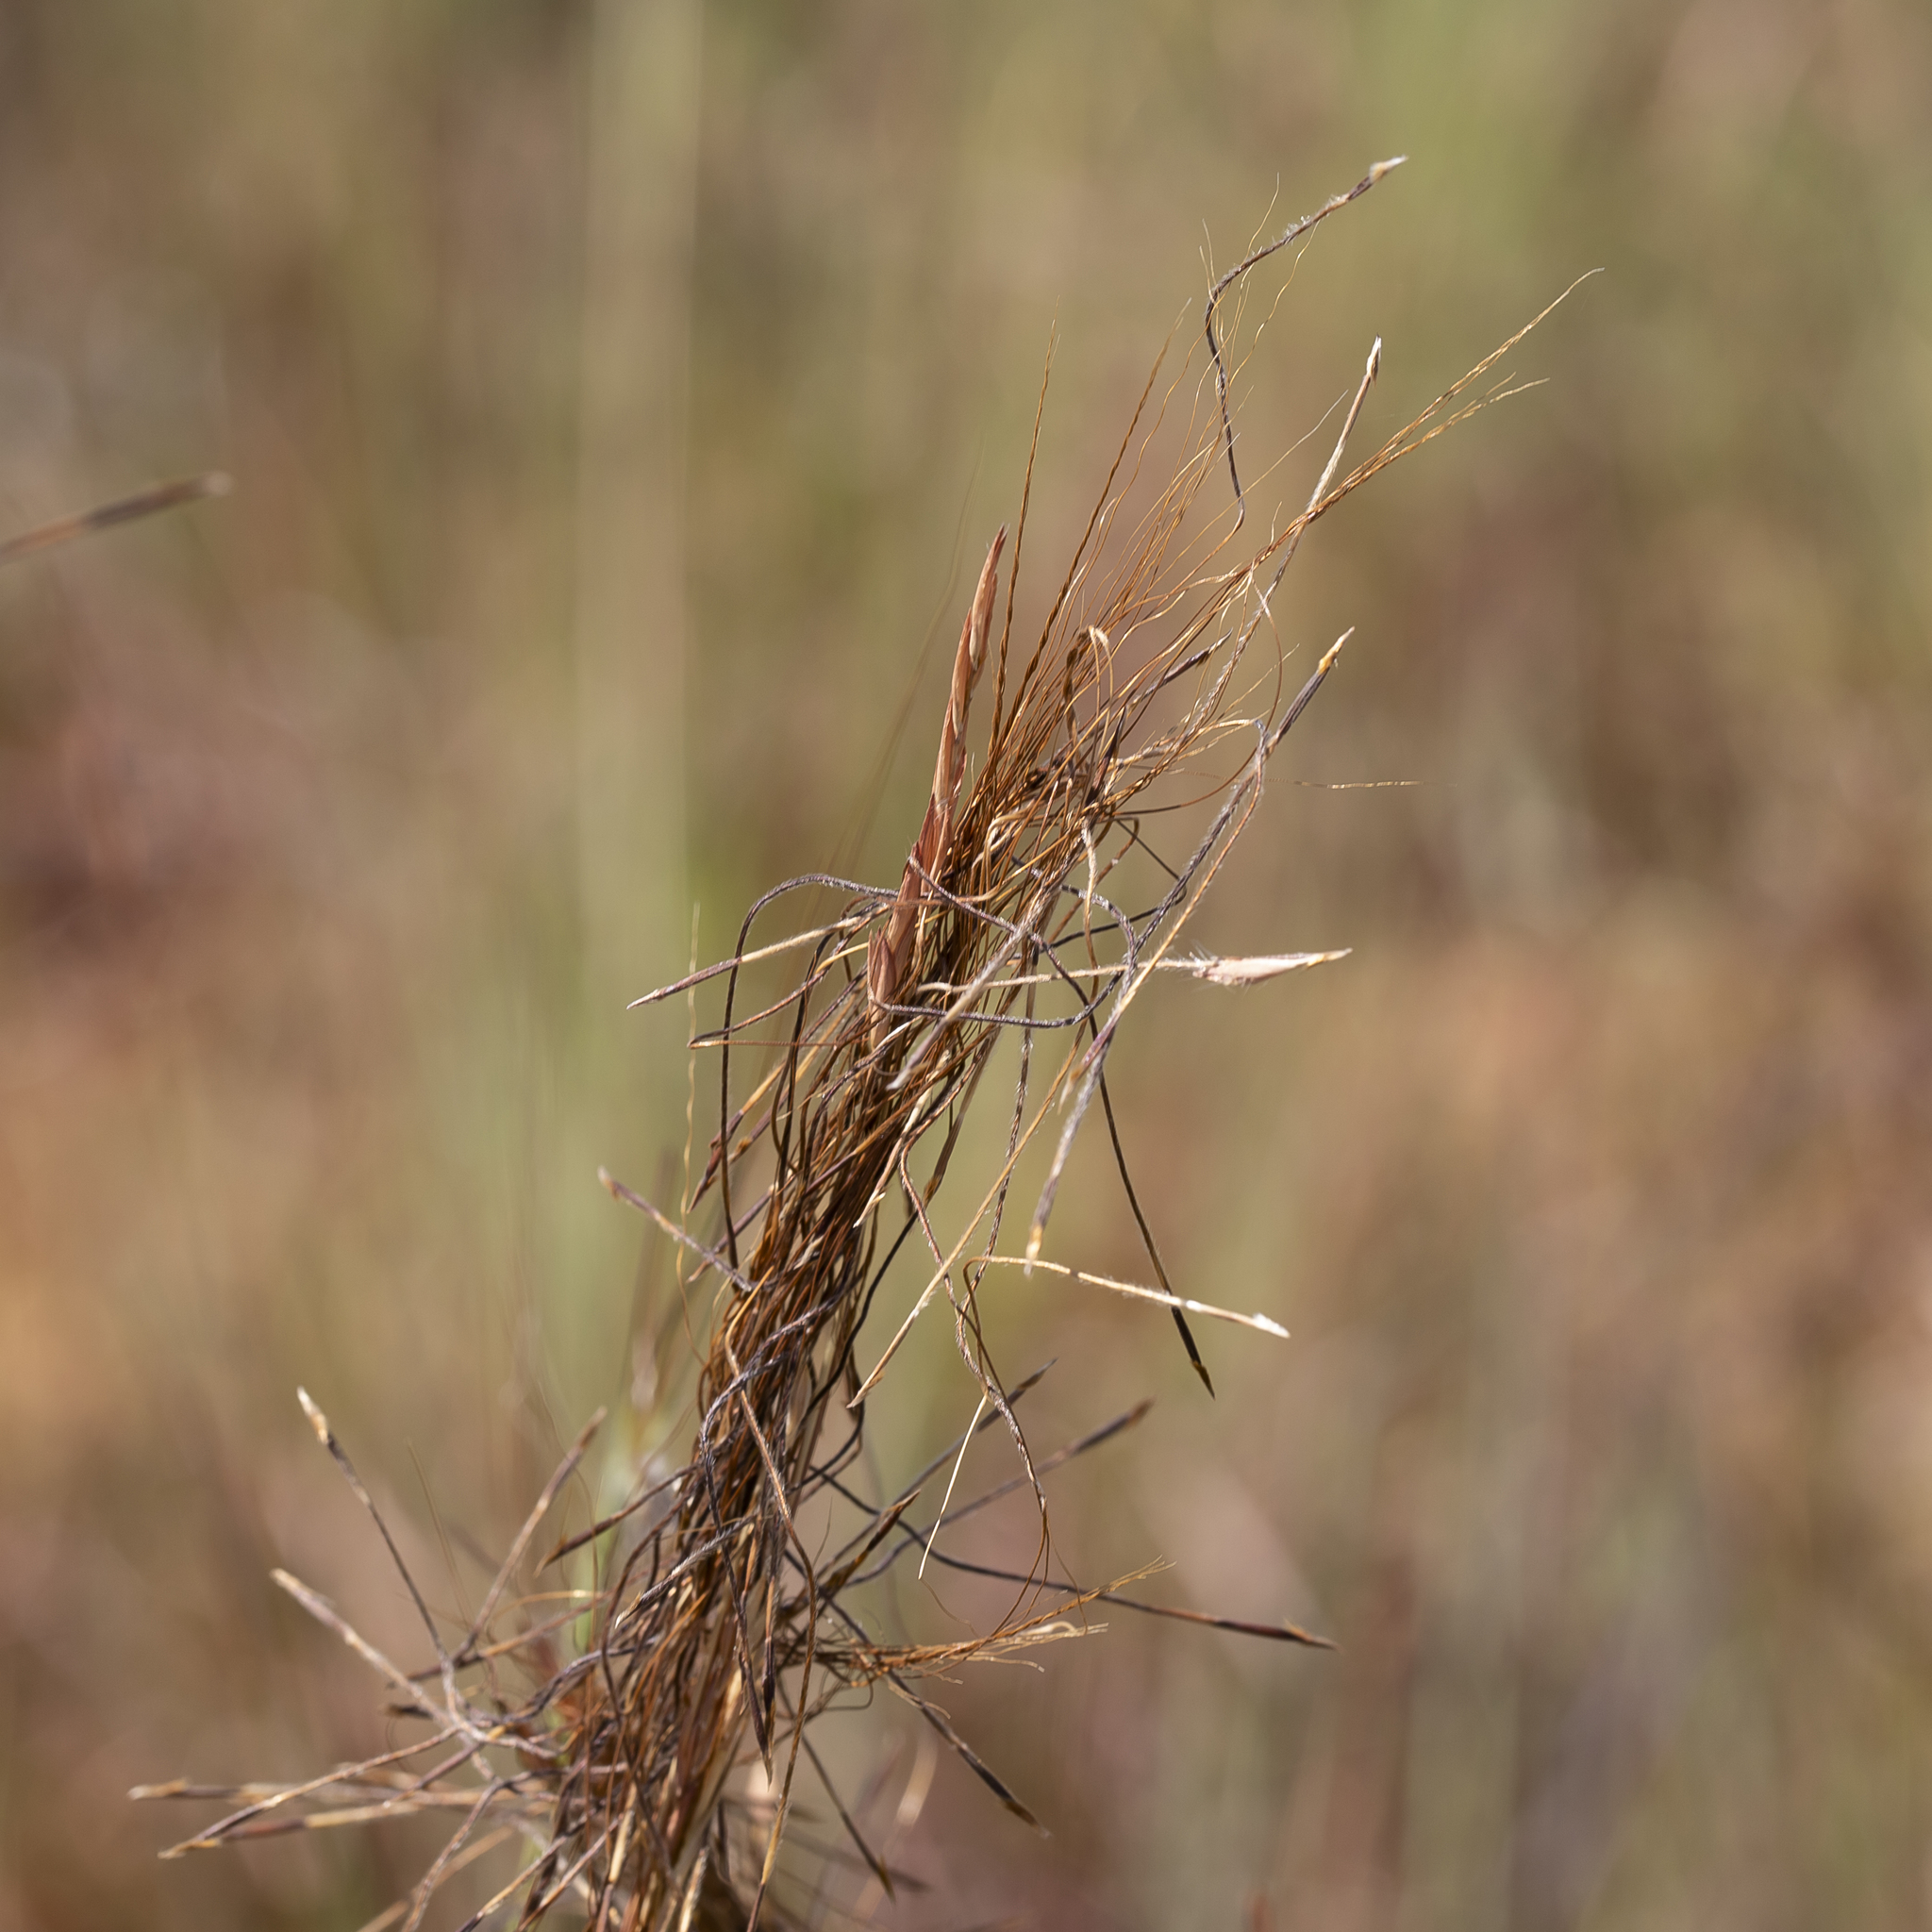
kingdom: Plantae
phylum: Tracheophyta
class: Liliopsida
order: Poales
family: Poaceae
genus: Heteropogon
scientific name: Heteropogon contortus
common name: Tanglehead
